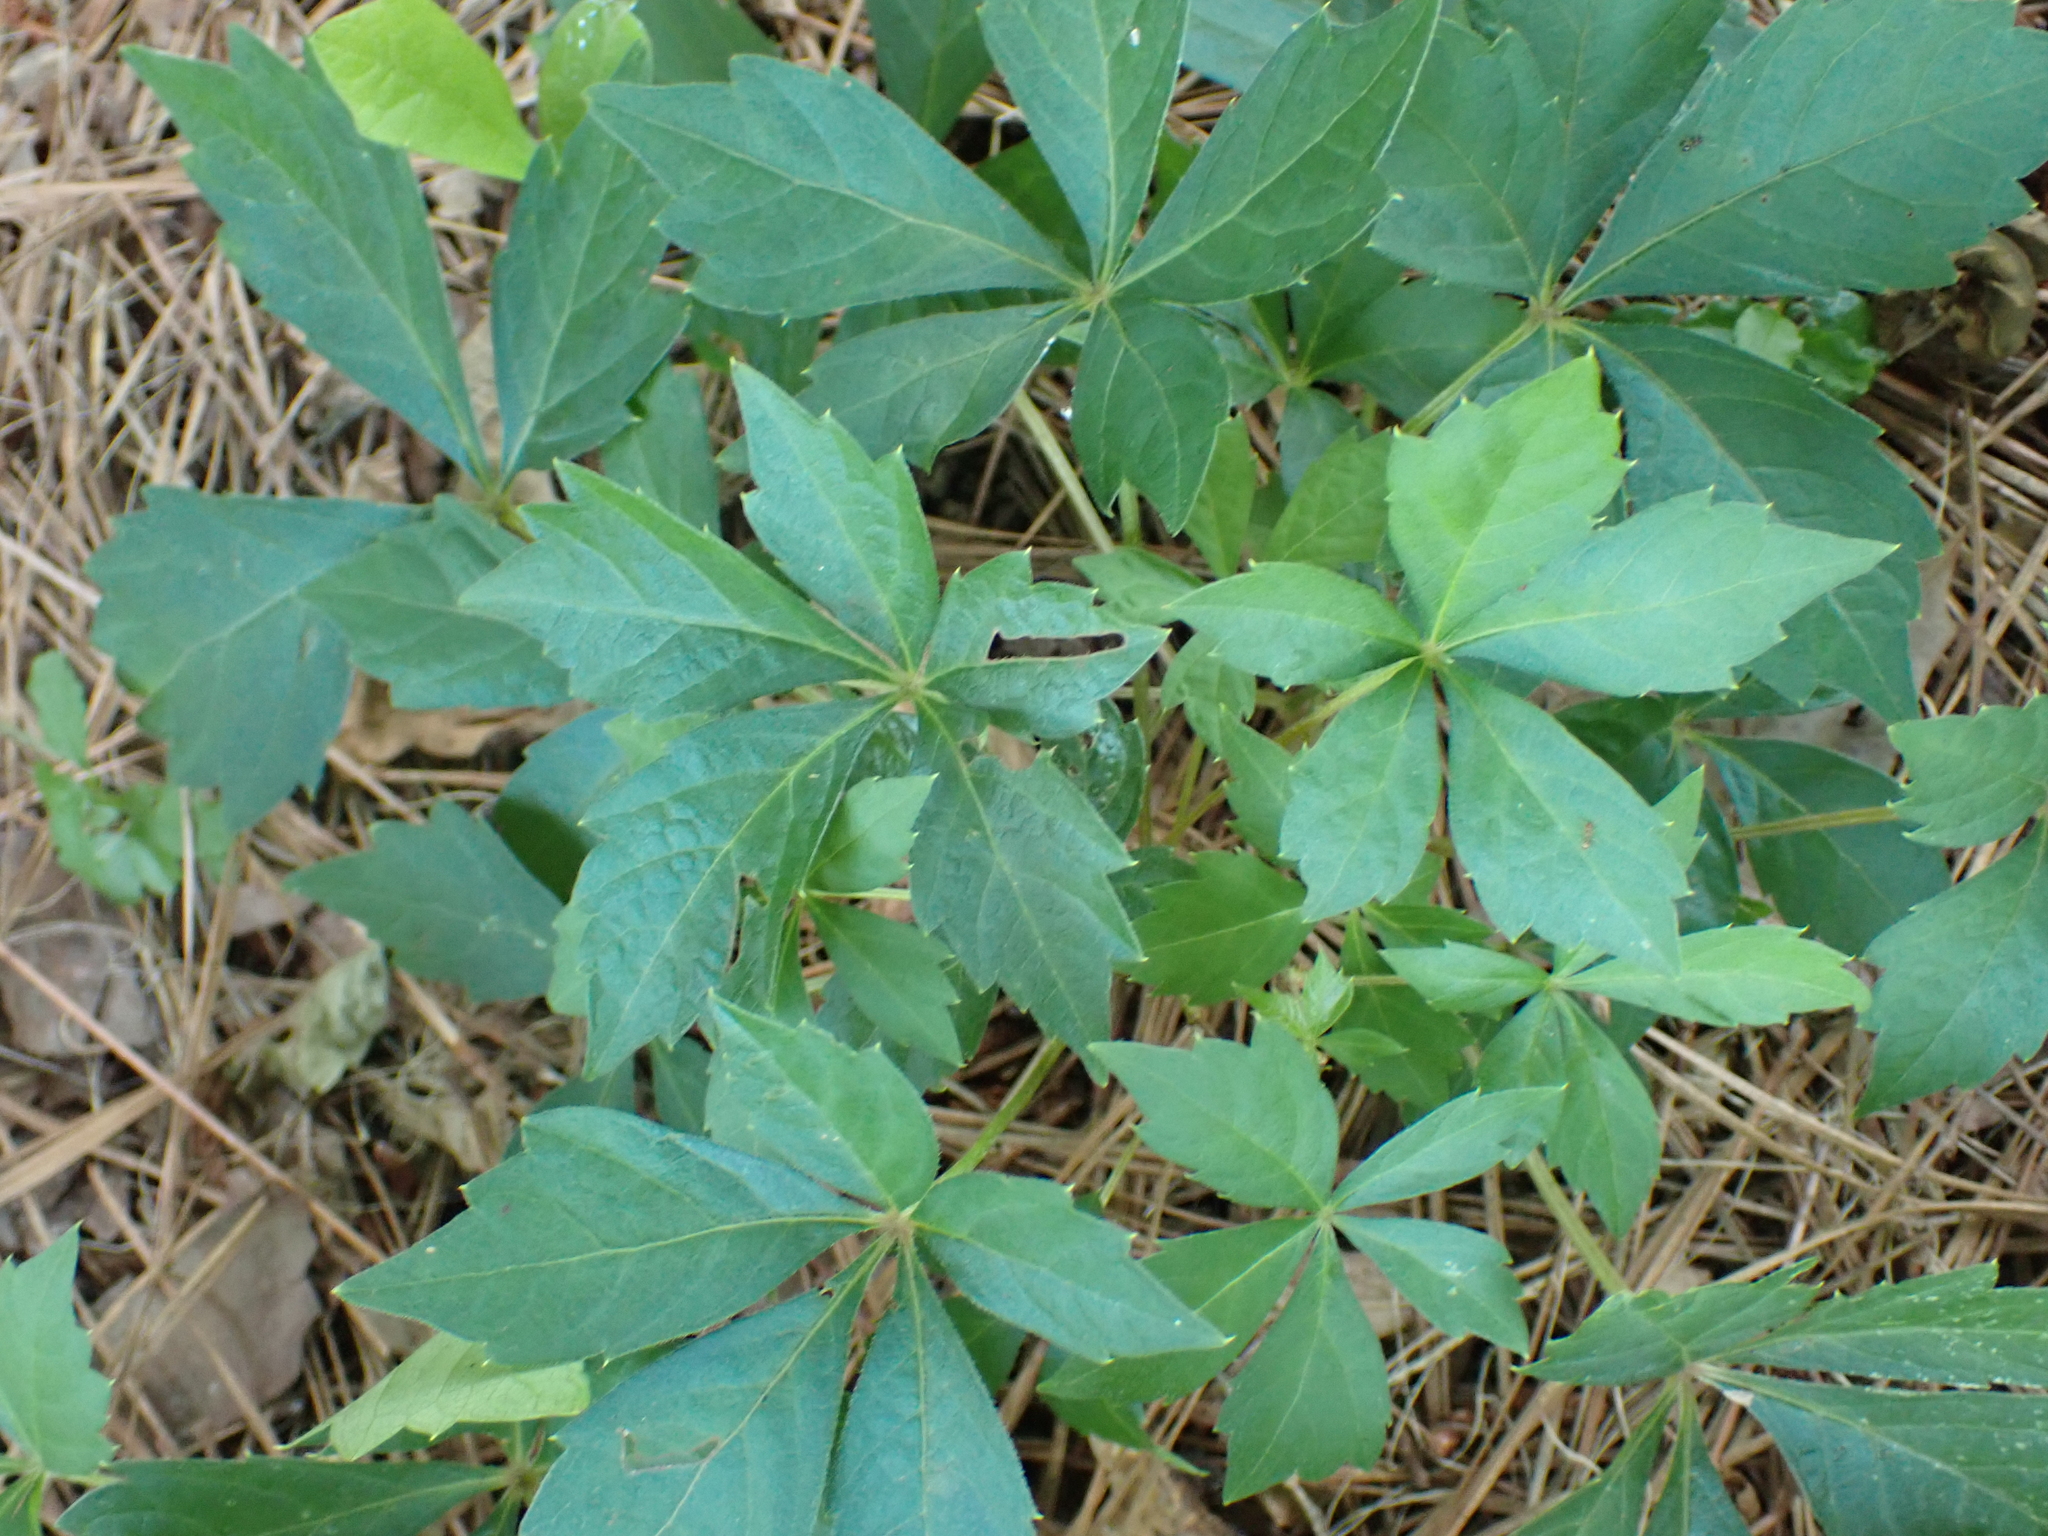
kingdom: Plantae
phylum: Tracheophyta
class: Magnoliopsida
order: Vitales
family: Vitaceae
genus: Parthenocissus
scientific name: Parthenocissus quinquefolia
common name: Virginia-creeper
